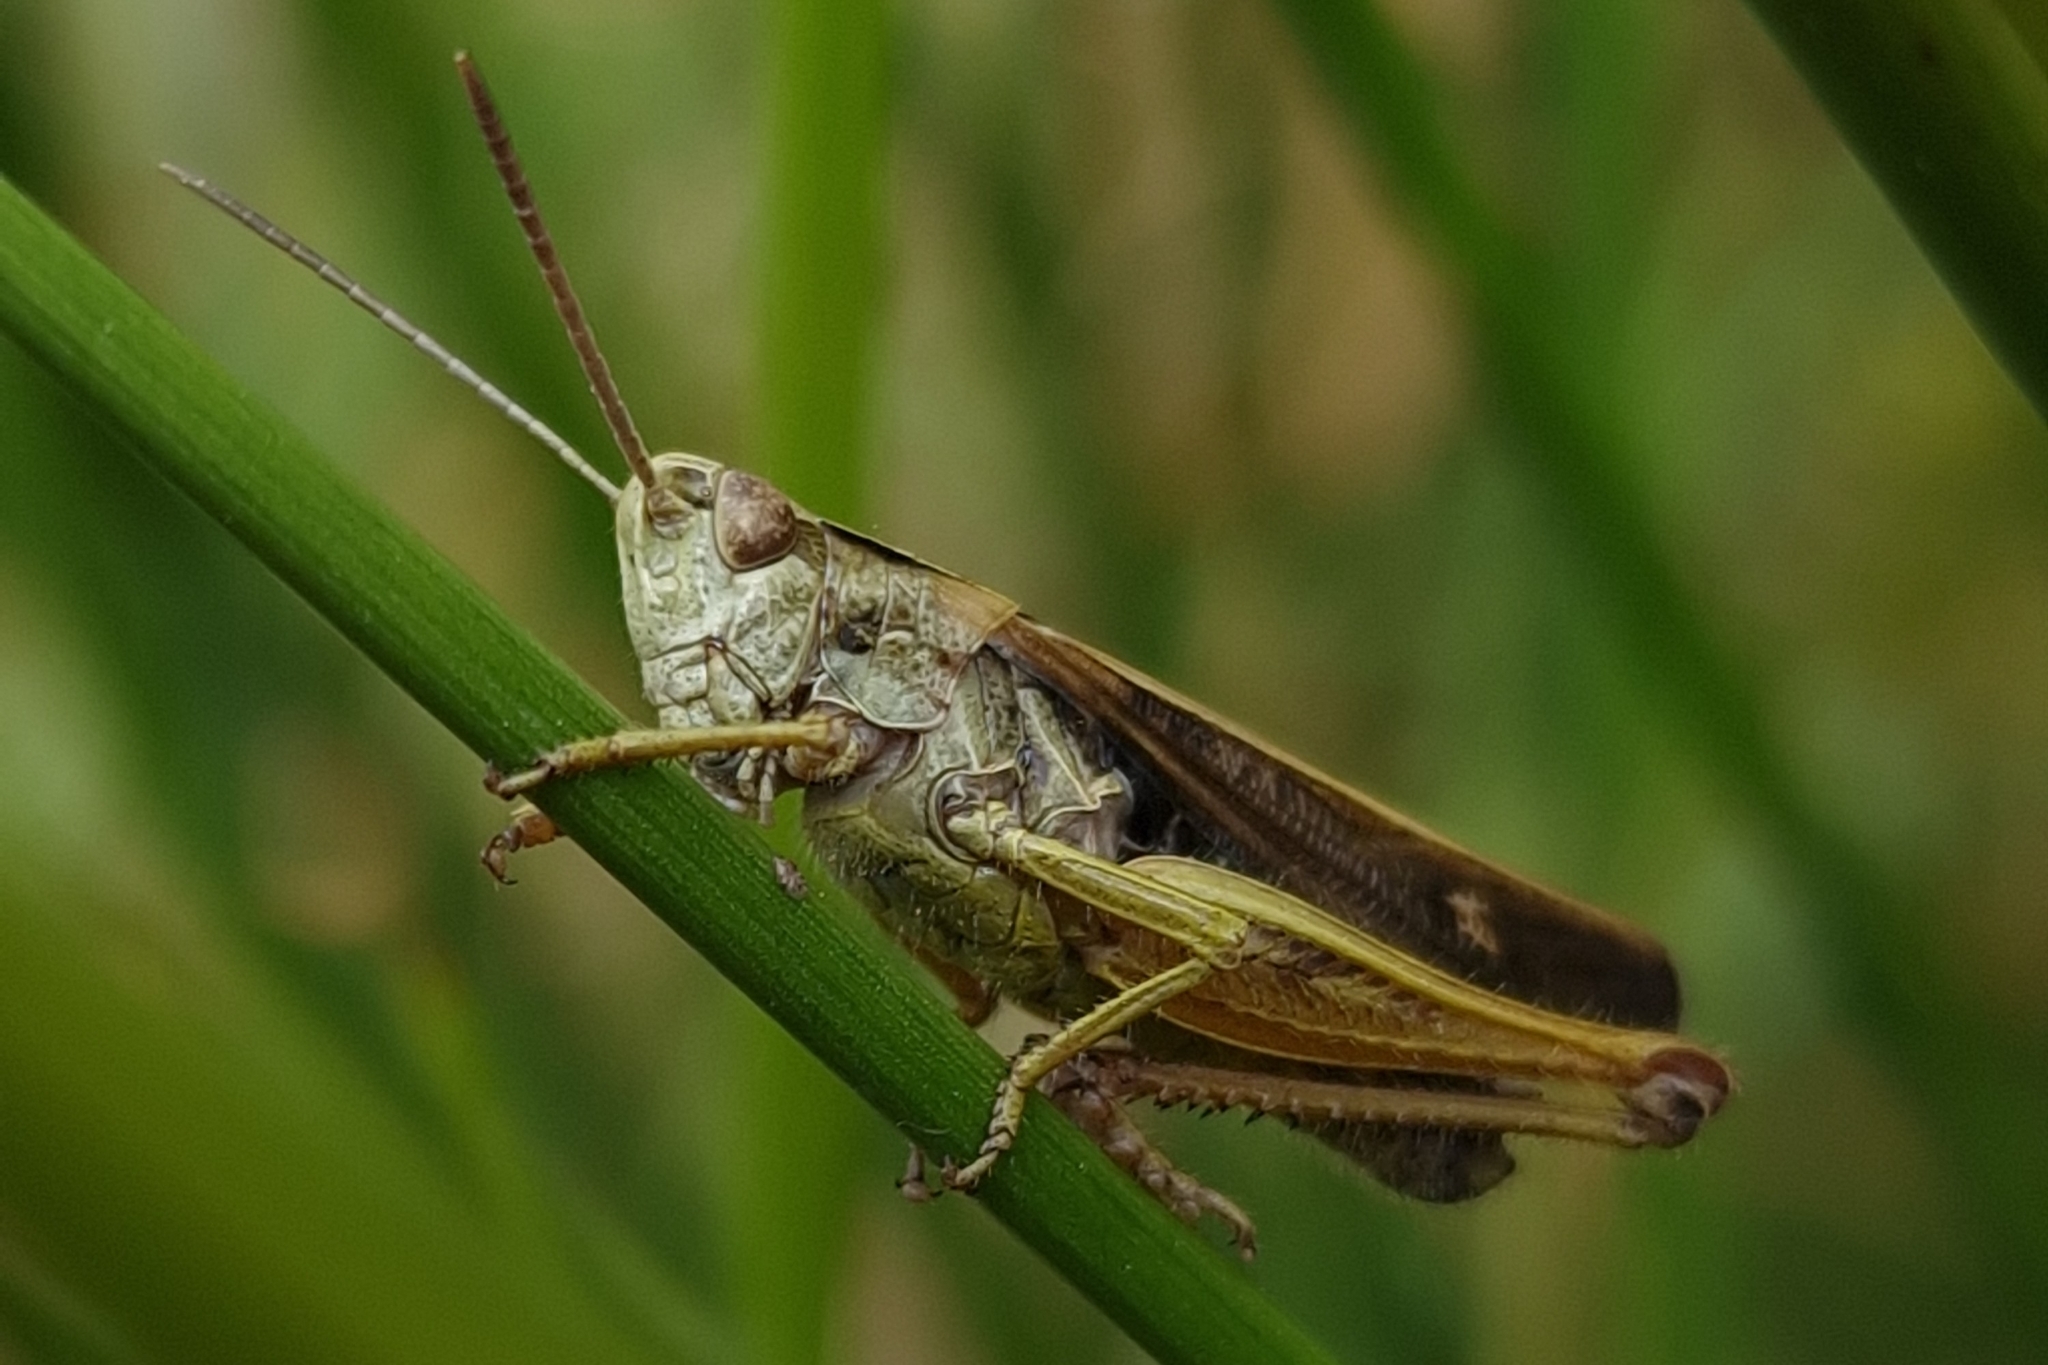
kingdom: Animalia
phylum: Arthropoda
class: Insecta
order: Orthoptera
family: Acrididae
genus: Omocestus
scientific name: Omocestus viridulus
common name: Common green grasshopper
